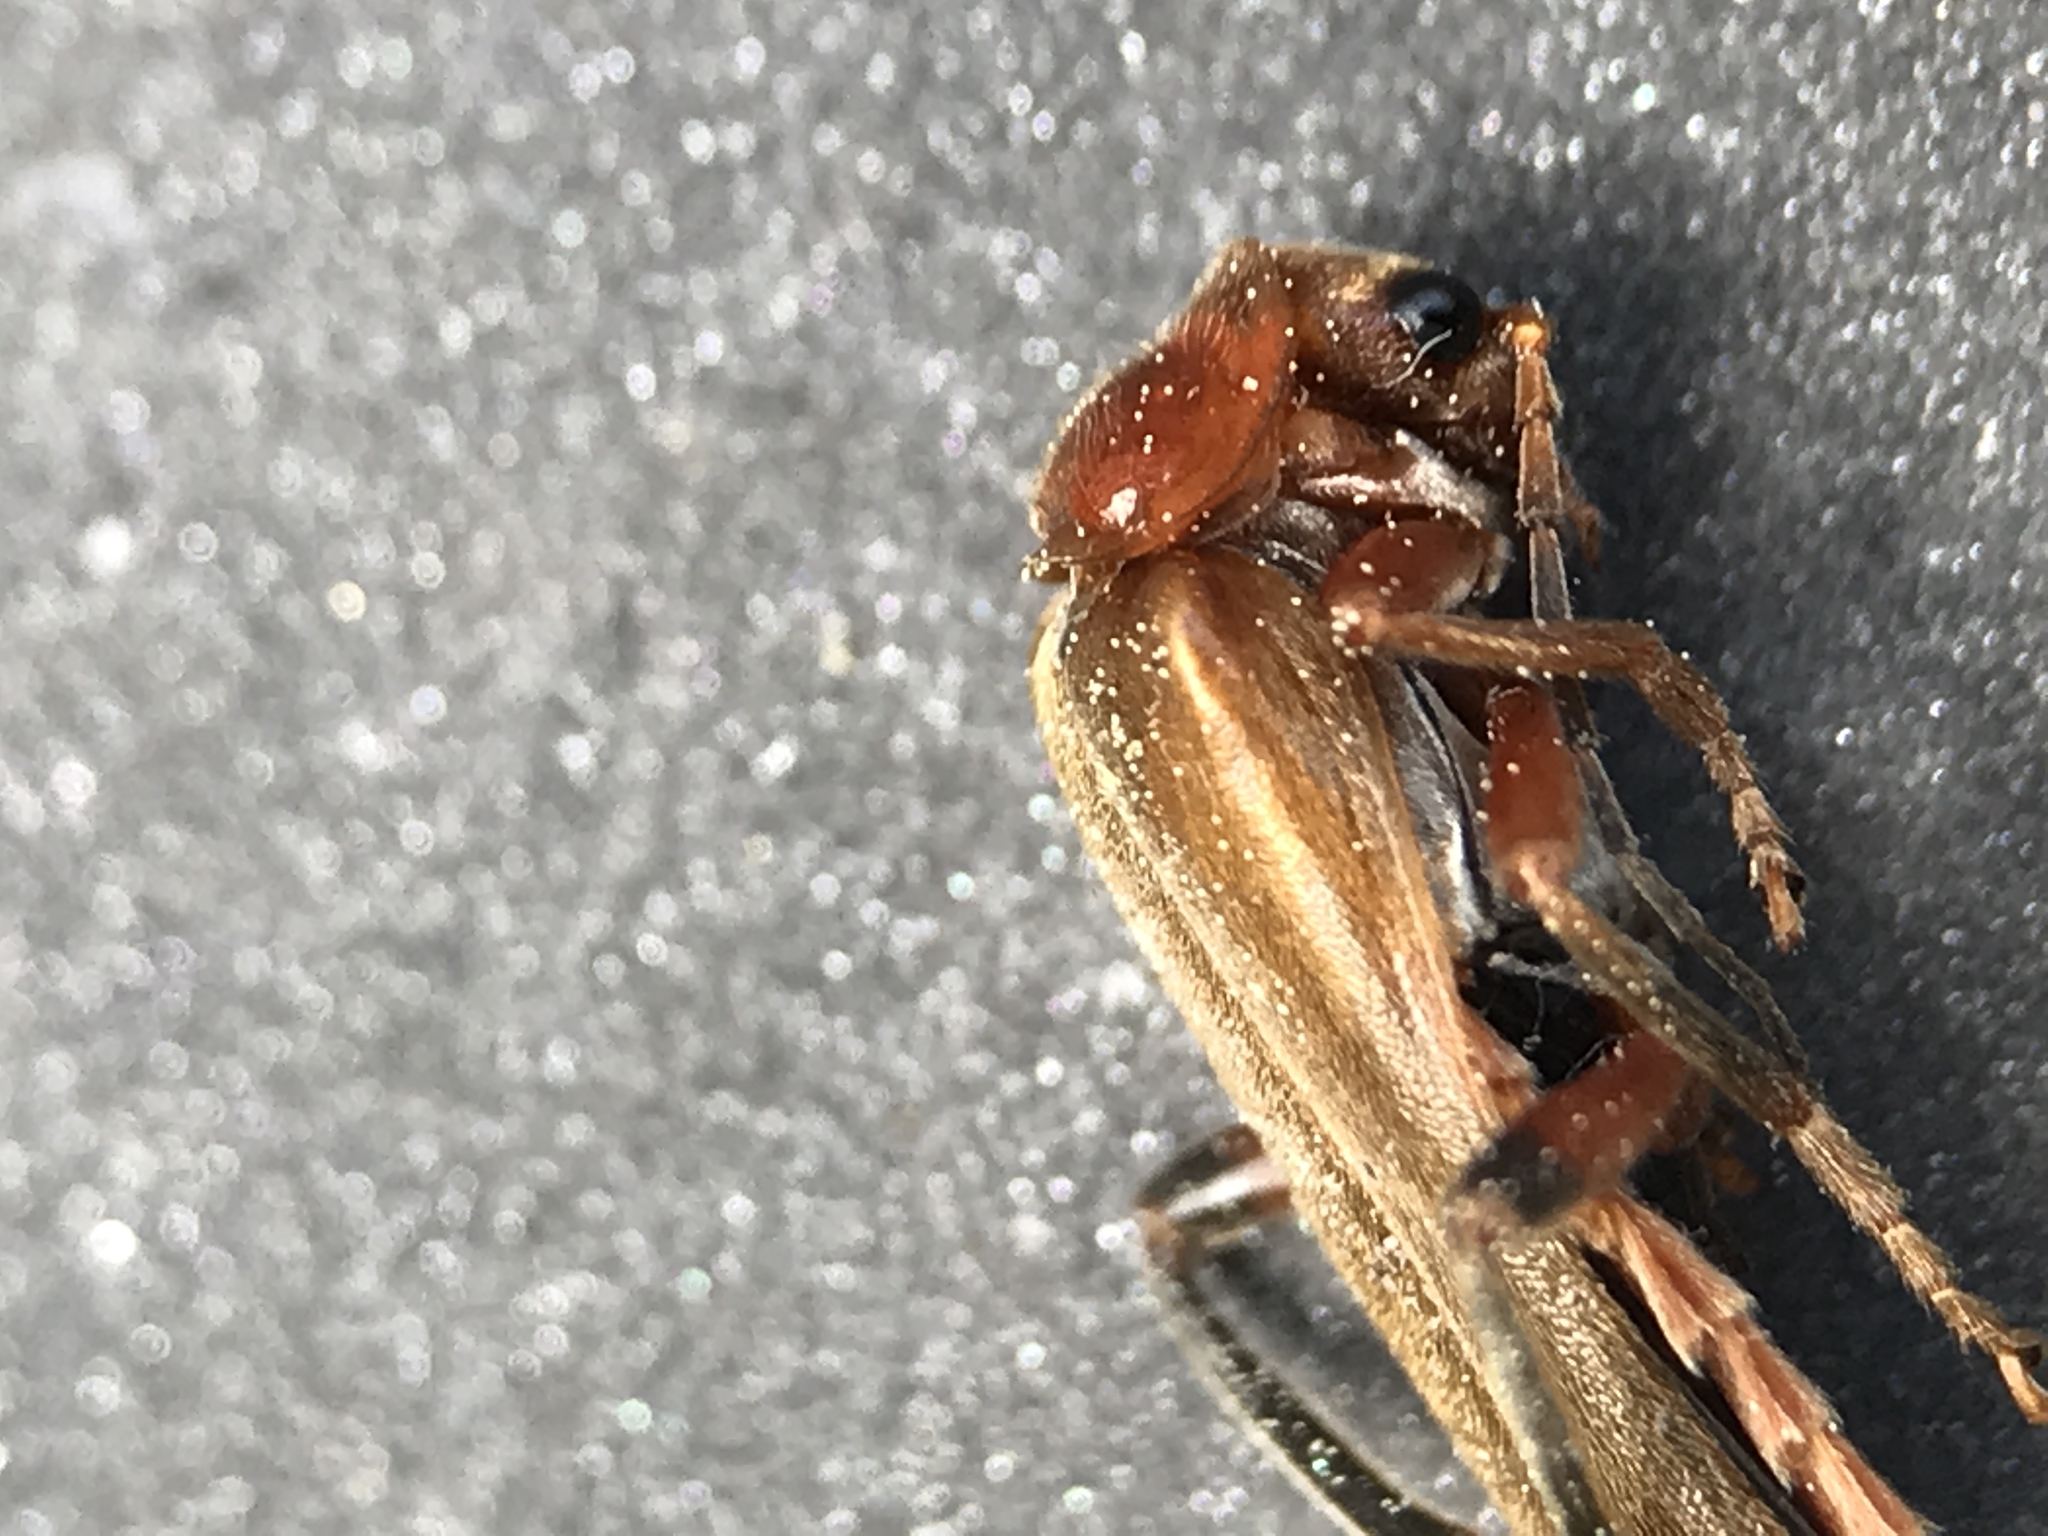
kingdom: Animalia
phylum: Arthropoda
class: Insecta
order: Coleoptera
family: Cantharidae
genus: Cantharis
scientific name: Cantharis livida
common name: Livid soldier beetle
